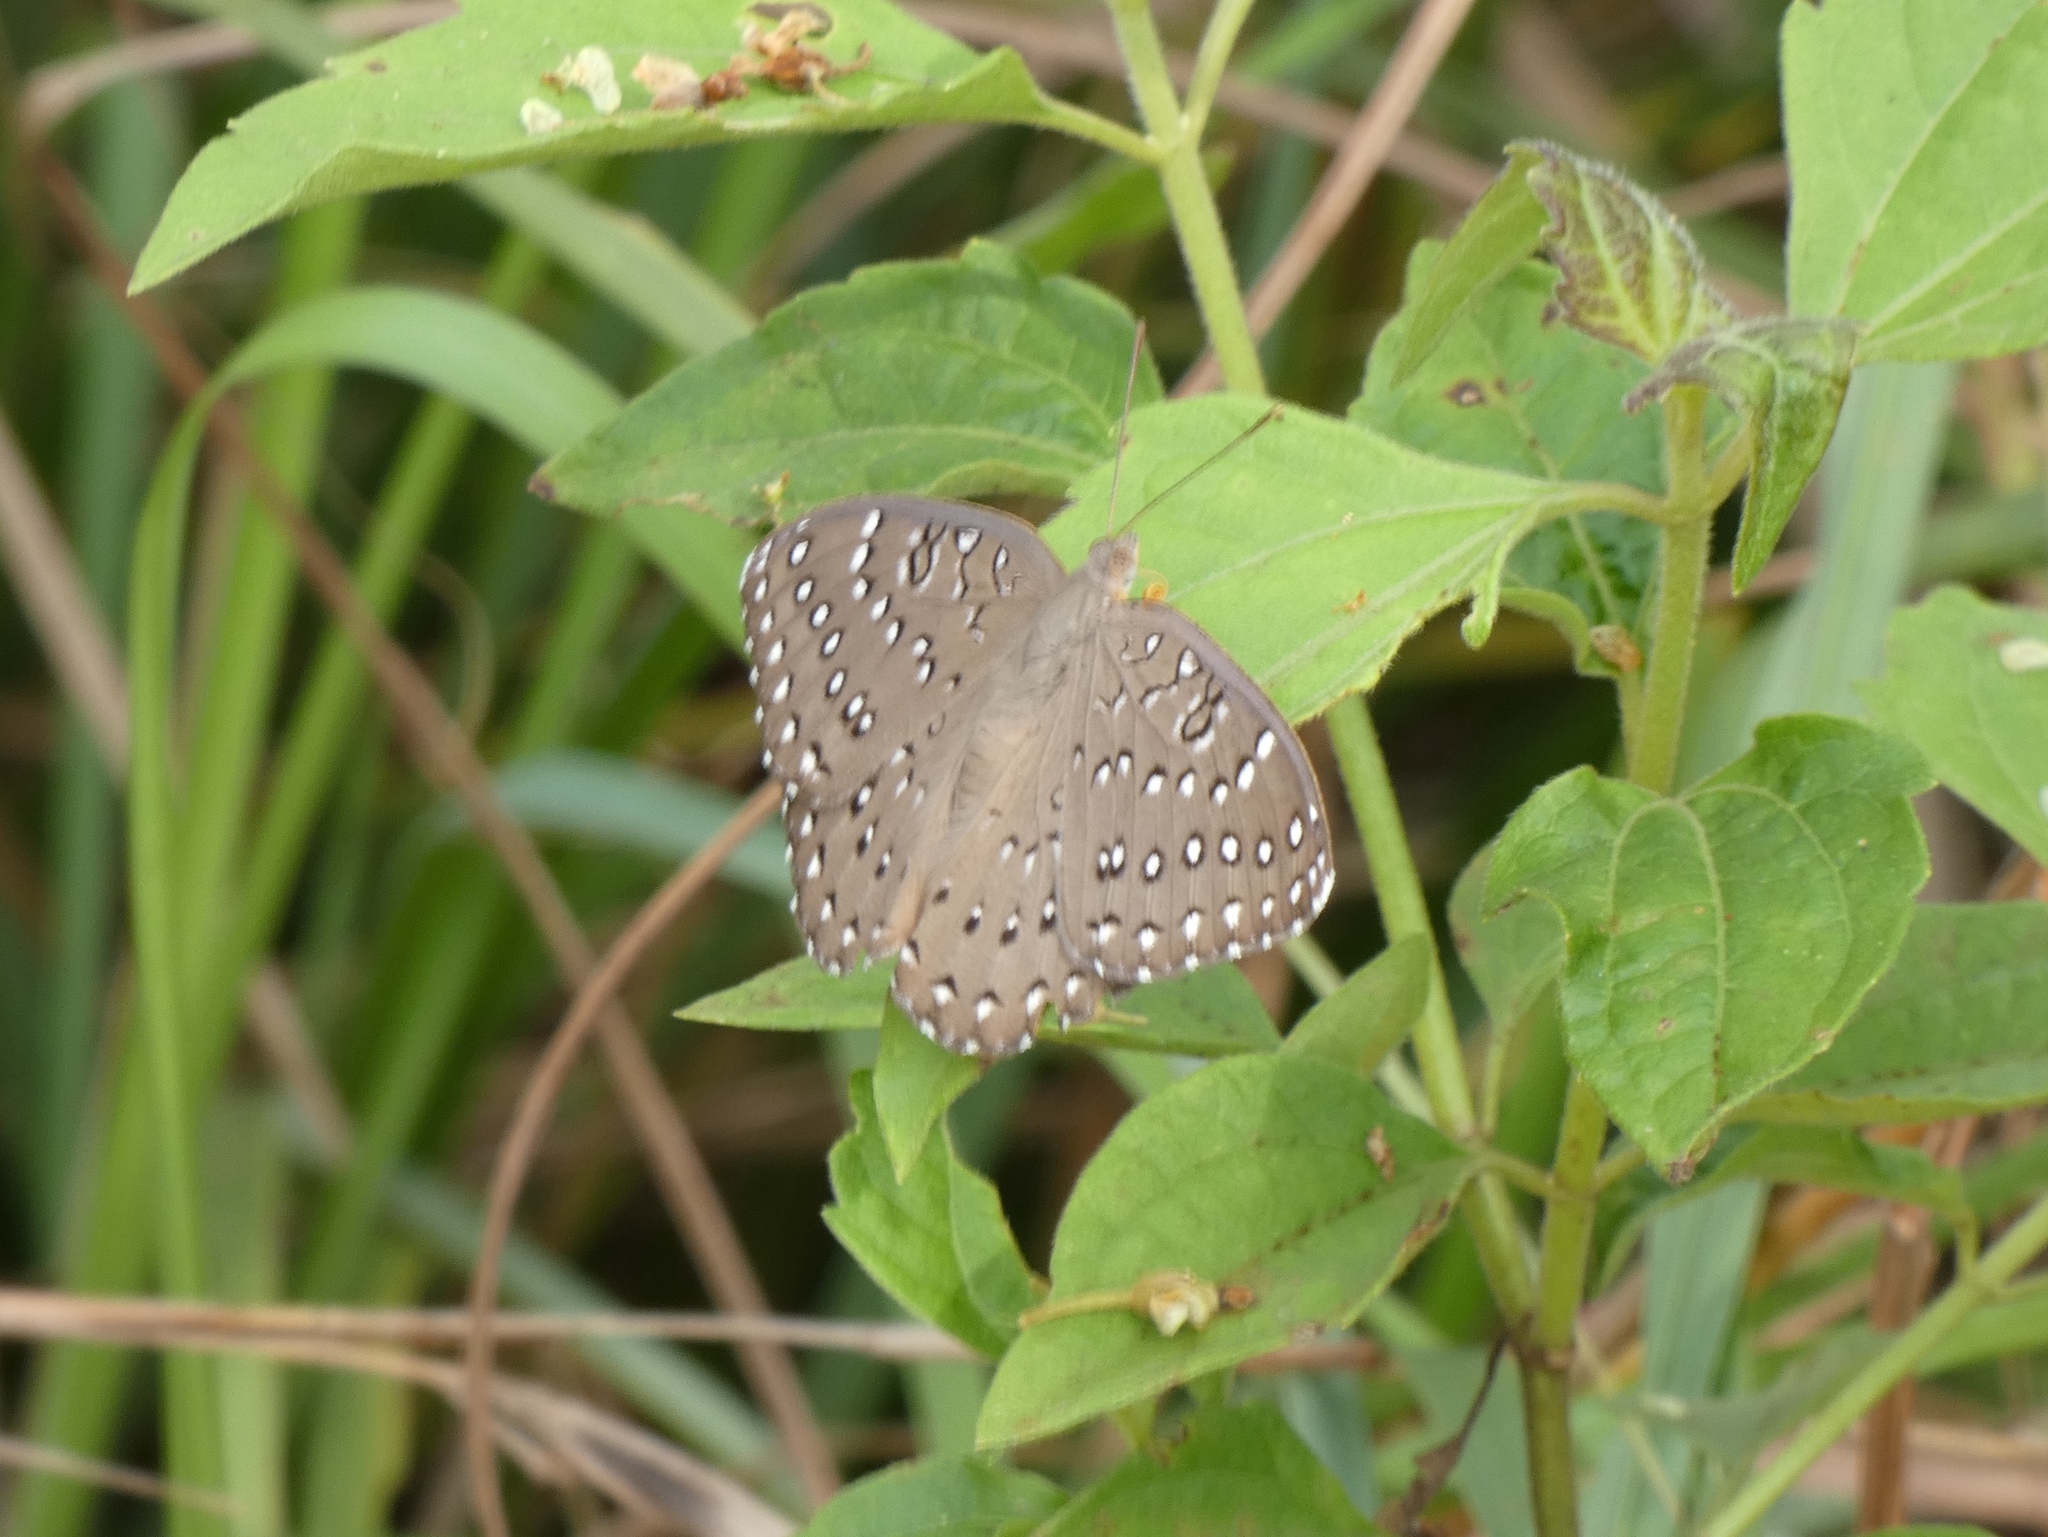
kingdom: Animalia
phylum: Arthropoda
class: Insecta
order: Lepidoptera
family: Nymphalidae
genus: Hamanumida
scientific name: Hamanumida daedalus
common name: Guinea-fowl butterfly
